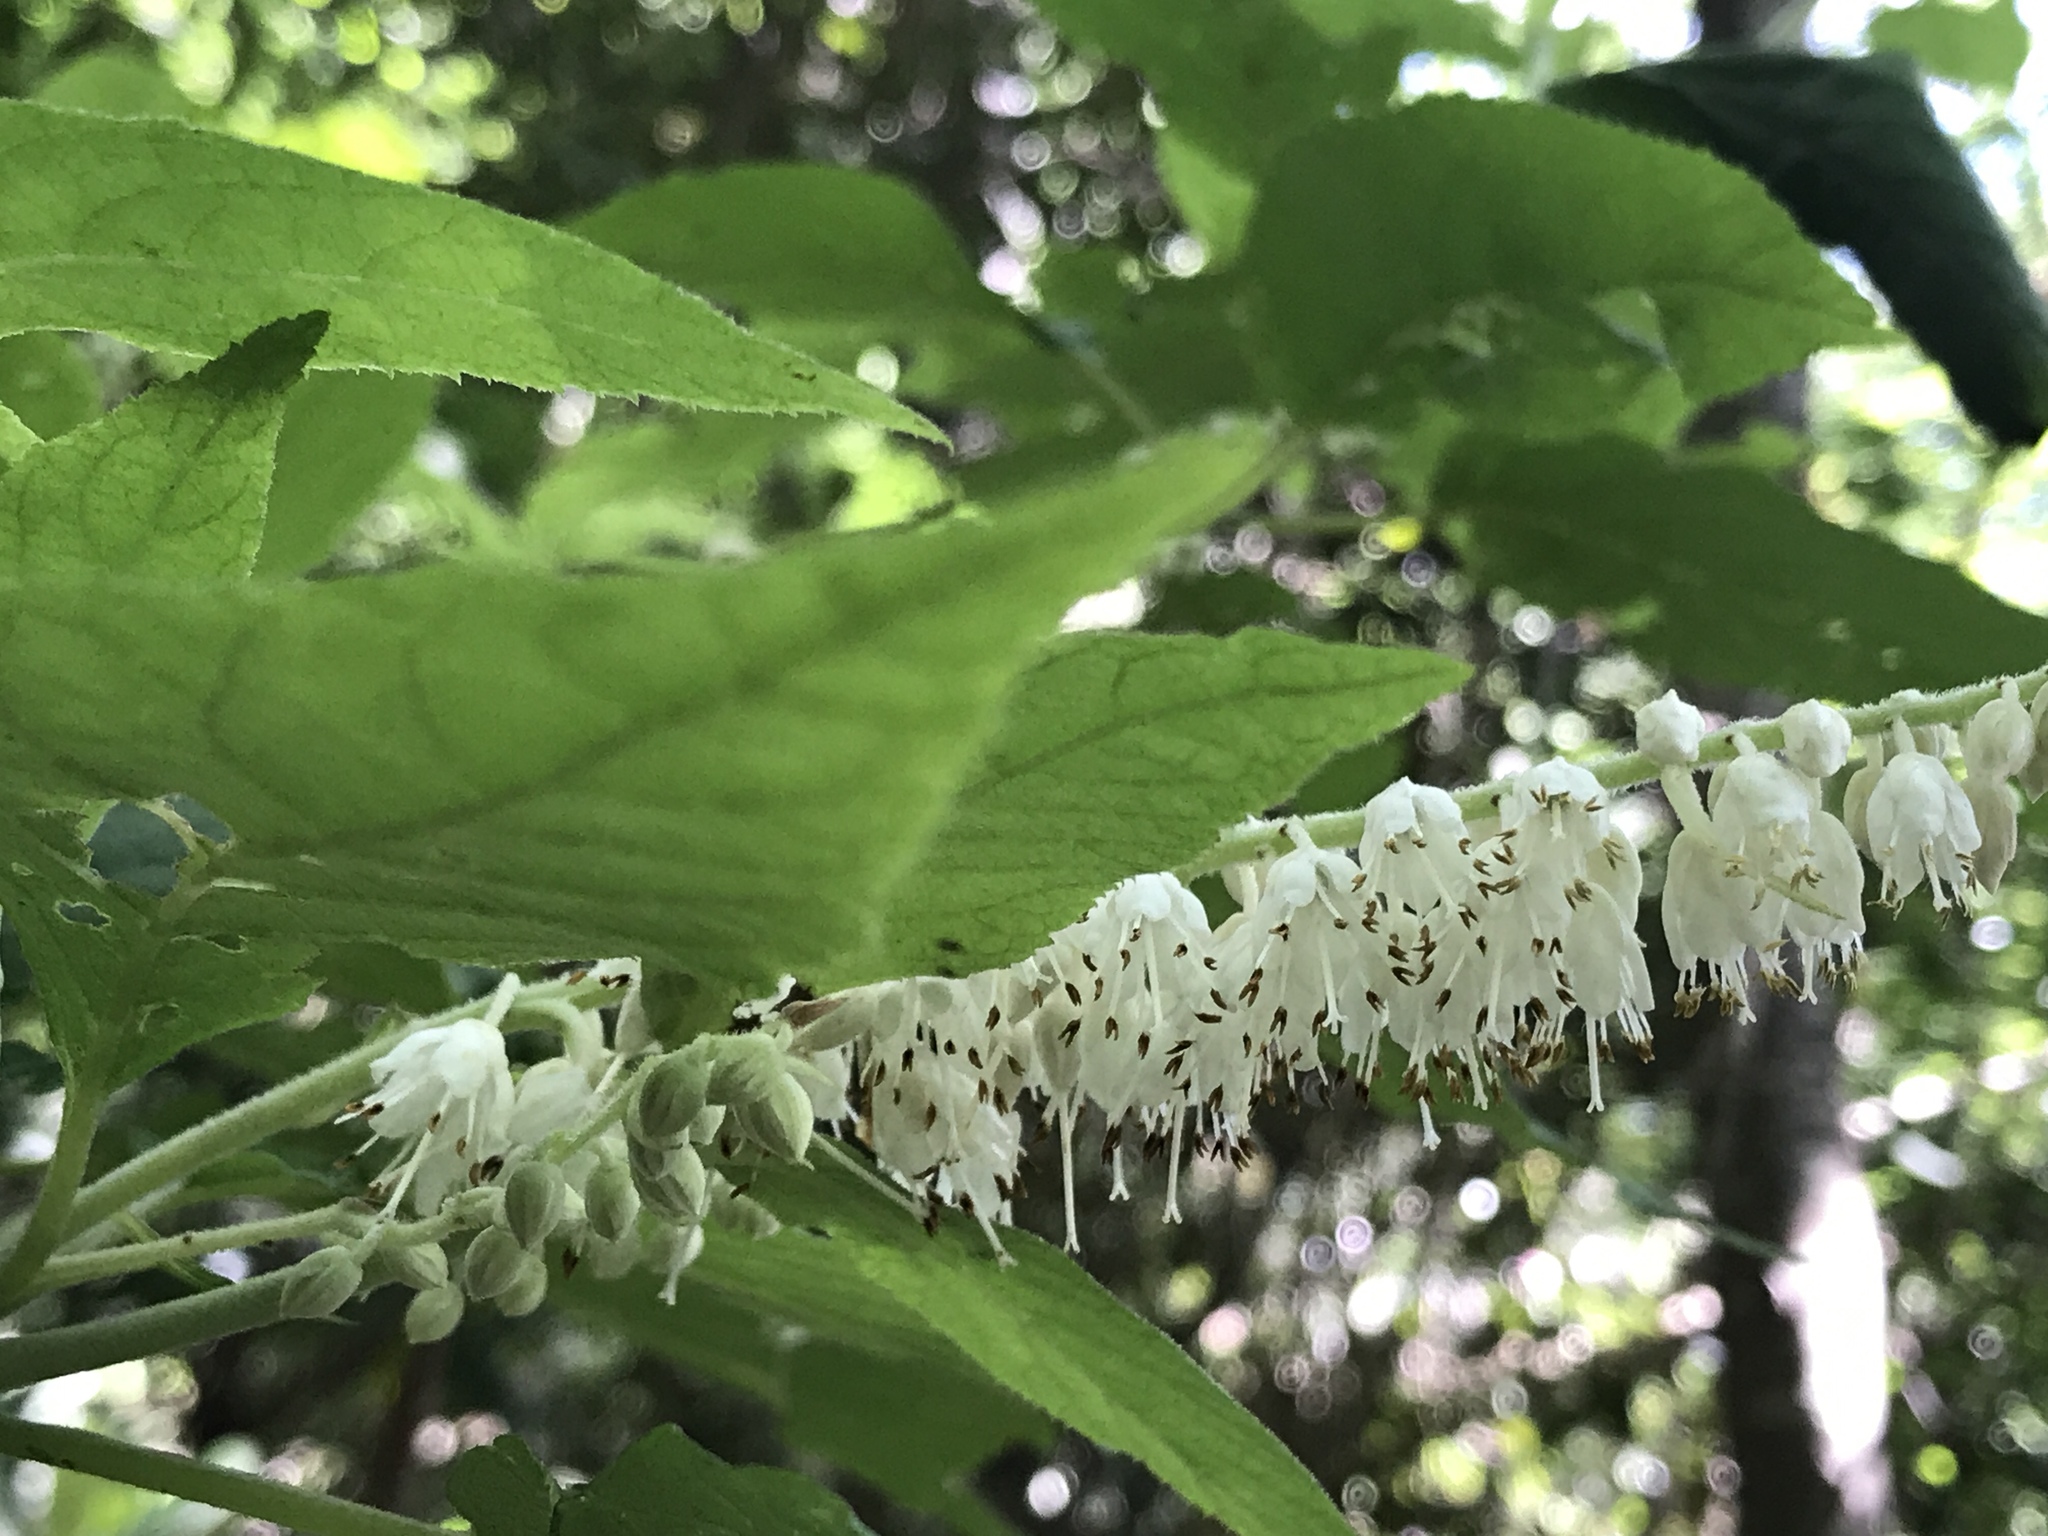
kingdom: Plantae
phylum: Tracheophyta
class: Magnoliopsida
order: Ericales
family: Clethraceae
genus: Clethra
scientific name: Clethra acuminata
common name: Mountain sweet pepperbush
